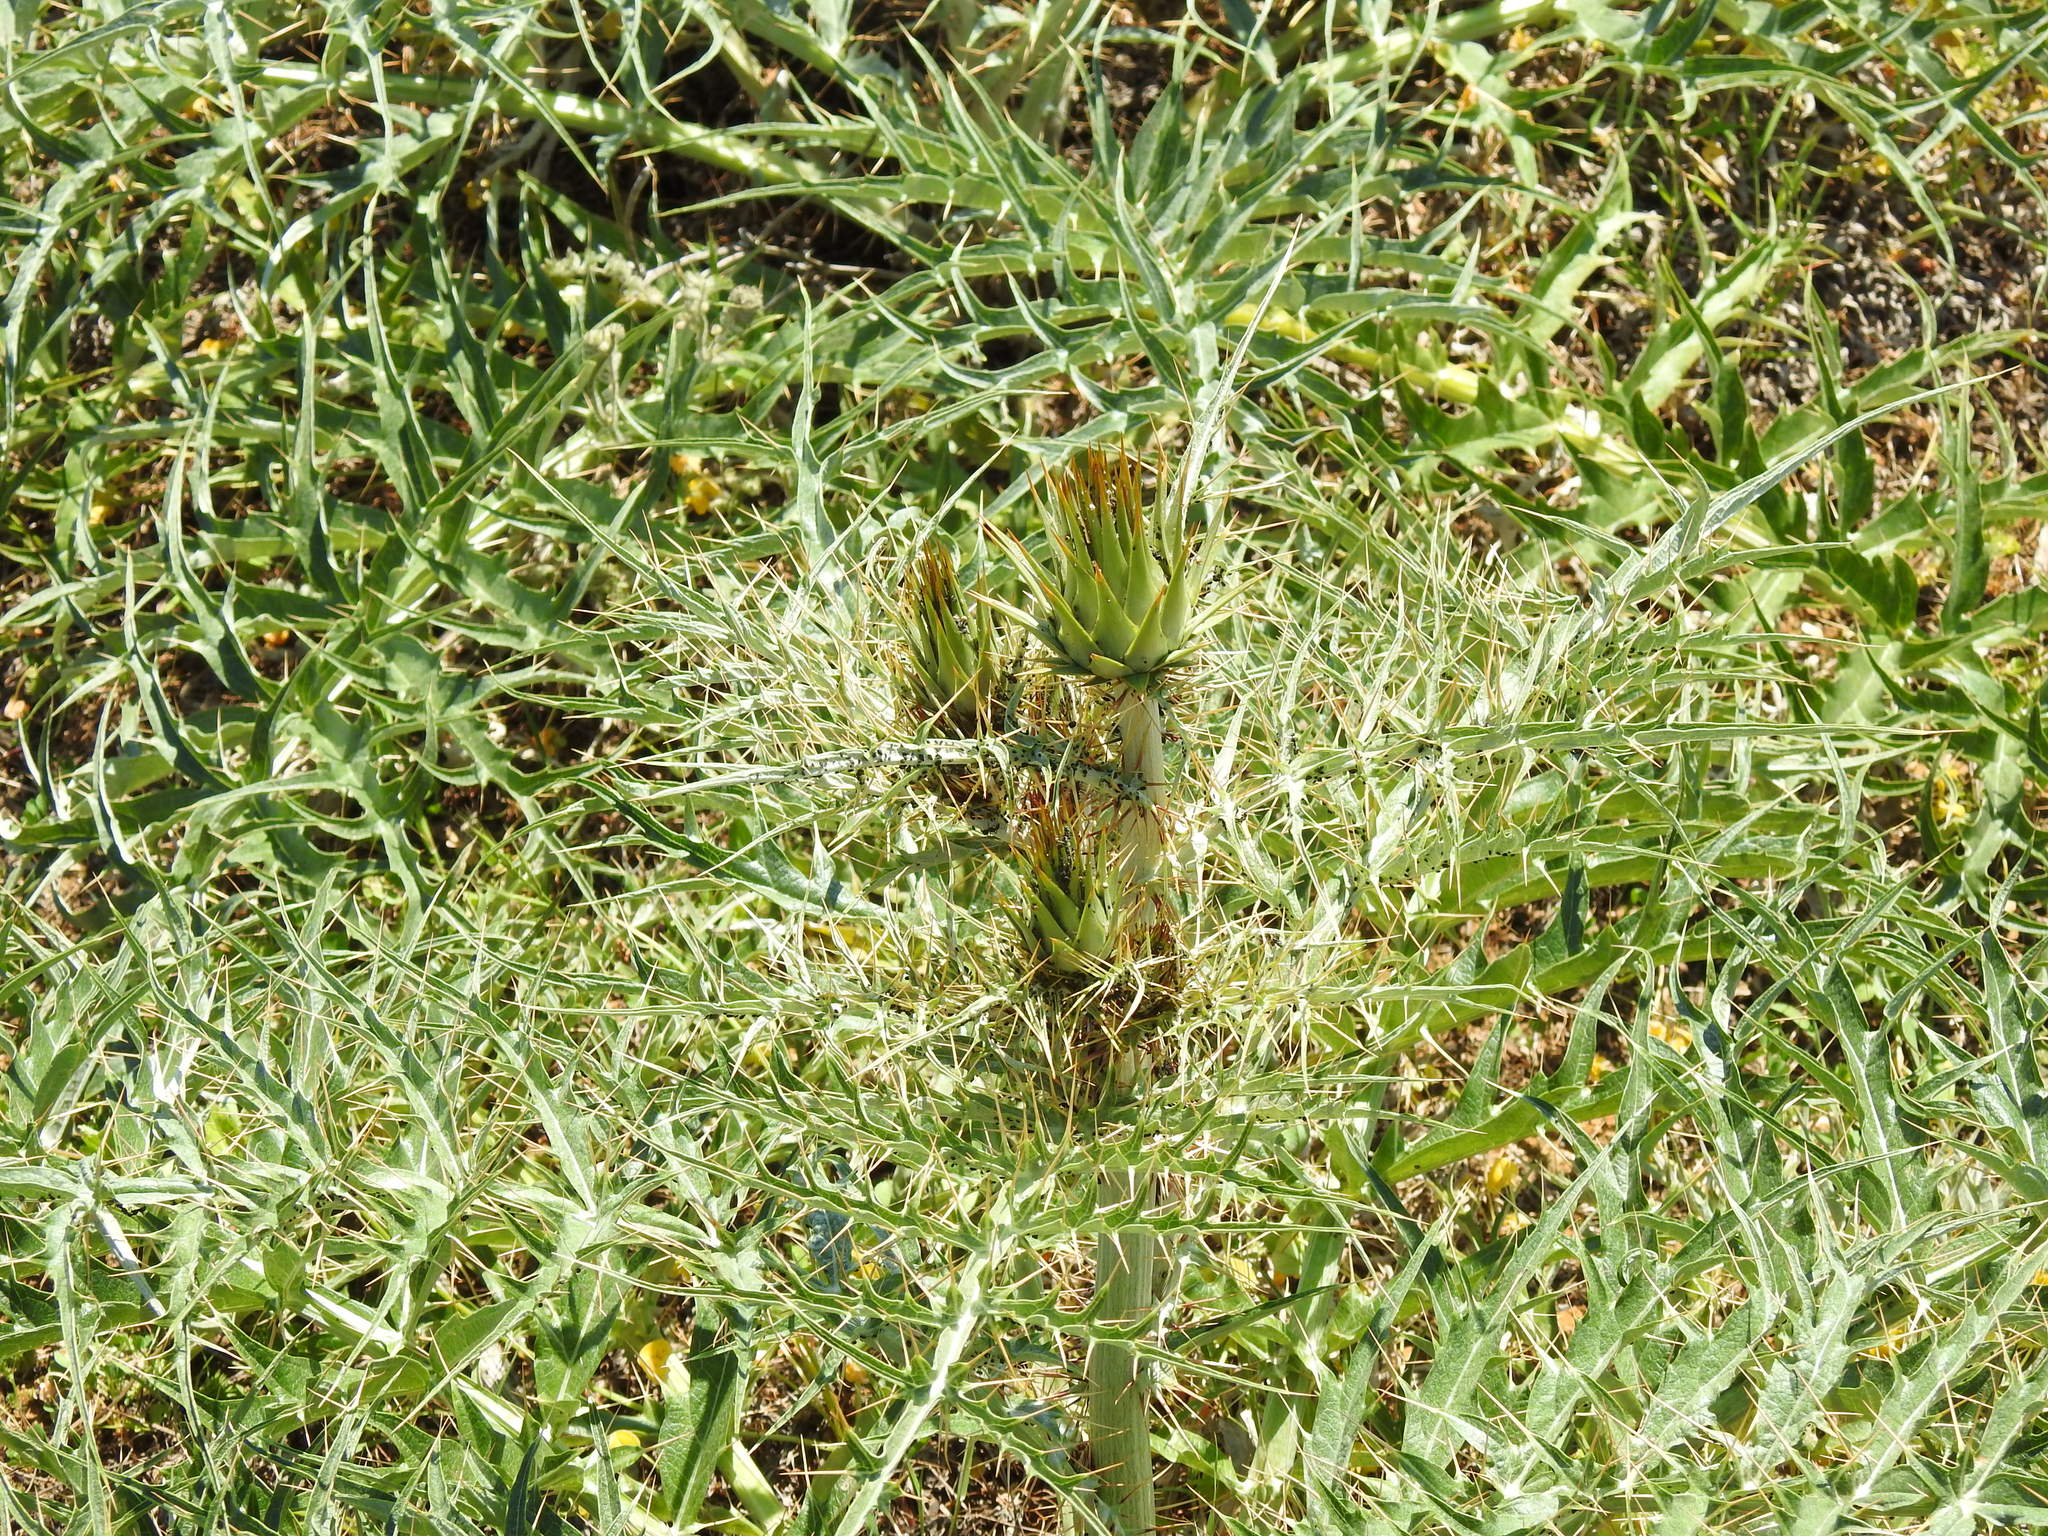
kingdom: Plantae
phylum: Tracheophyta
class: Magnoliopsida
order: Asterales
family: Asteraceae
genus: Cynara
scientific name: Cynara cardunculus
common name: Globe artichoke
